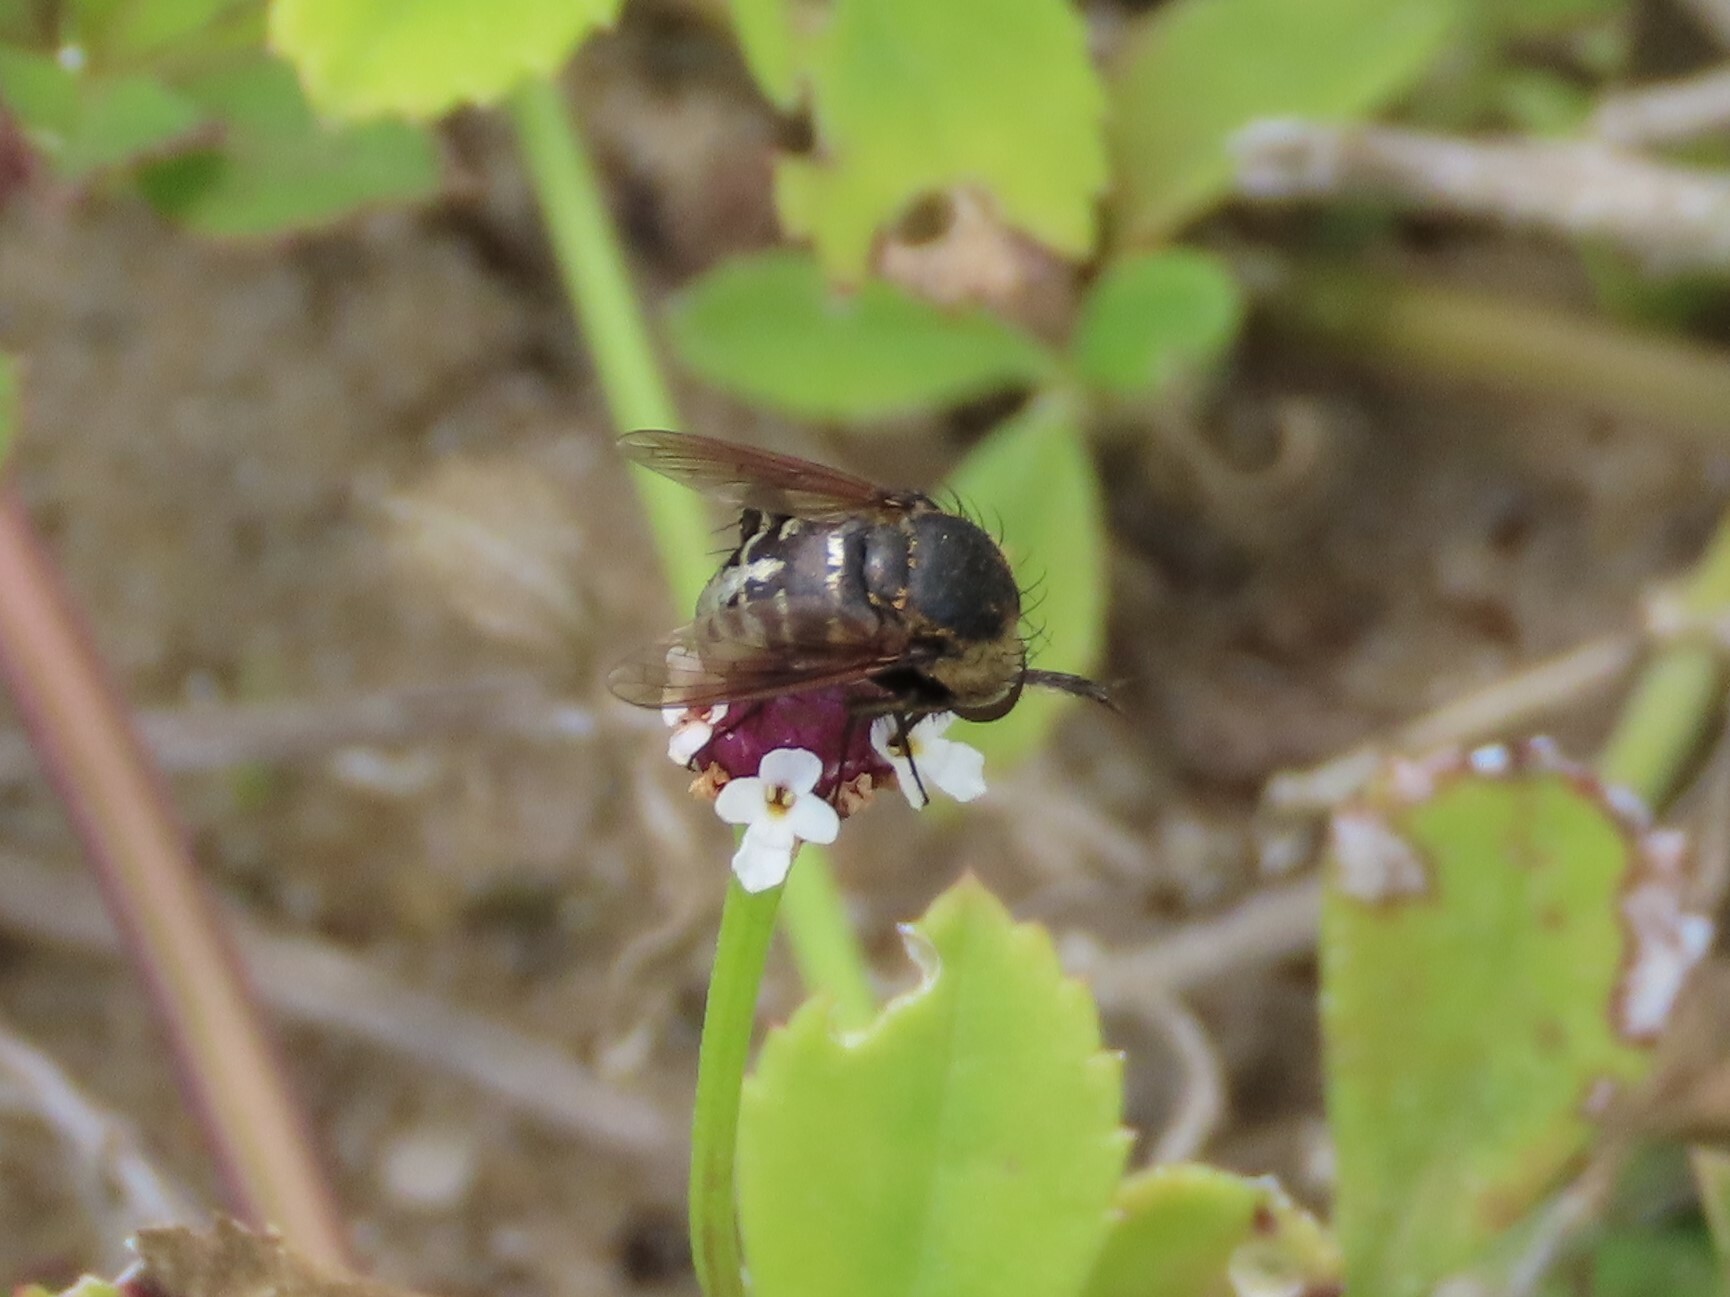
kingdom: Animalia
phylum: Arthropoda
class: Insecta
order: Diptera
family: Bombyliidae
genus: Toxophora
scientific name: Toxophora amphitea
